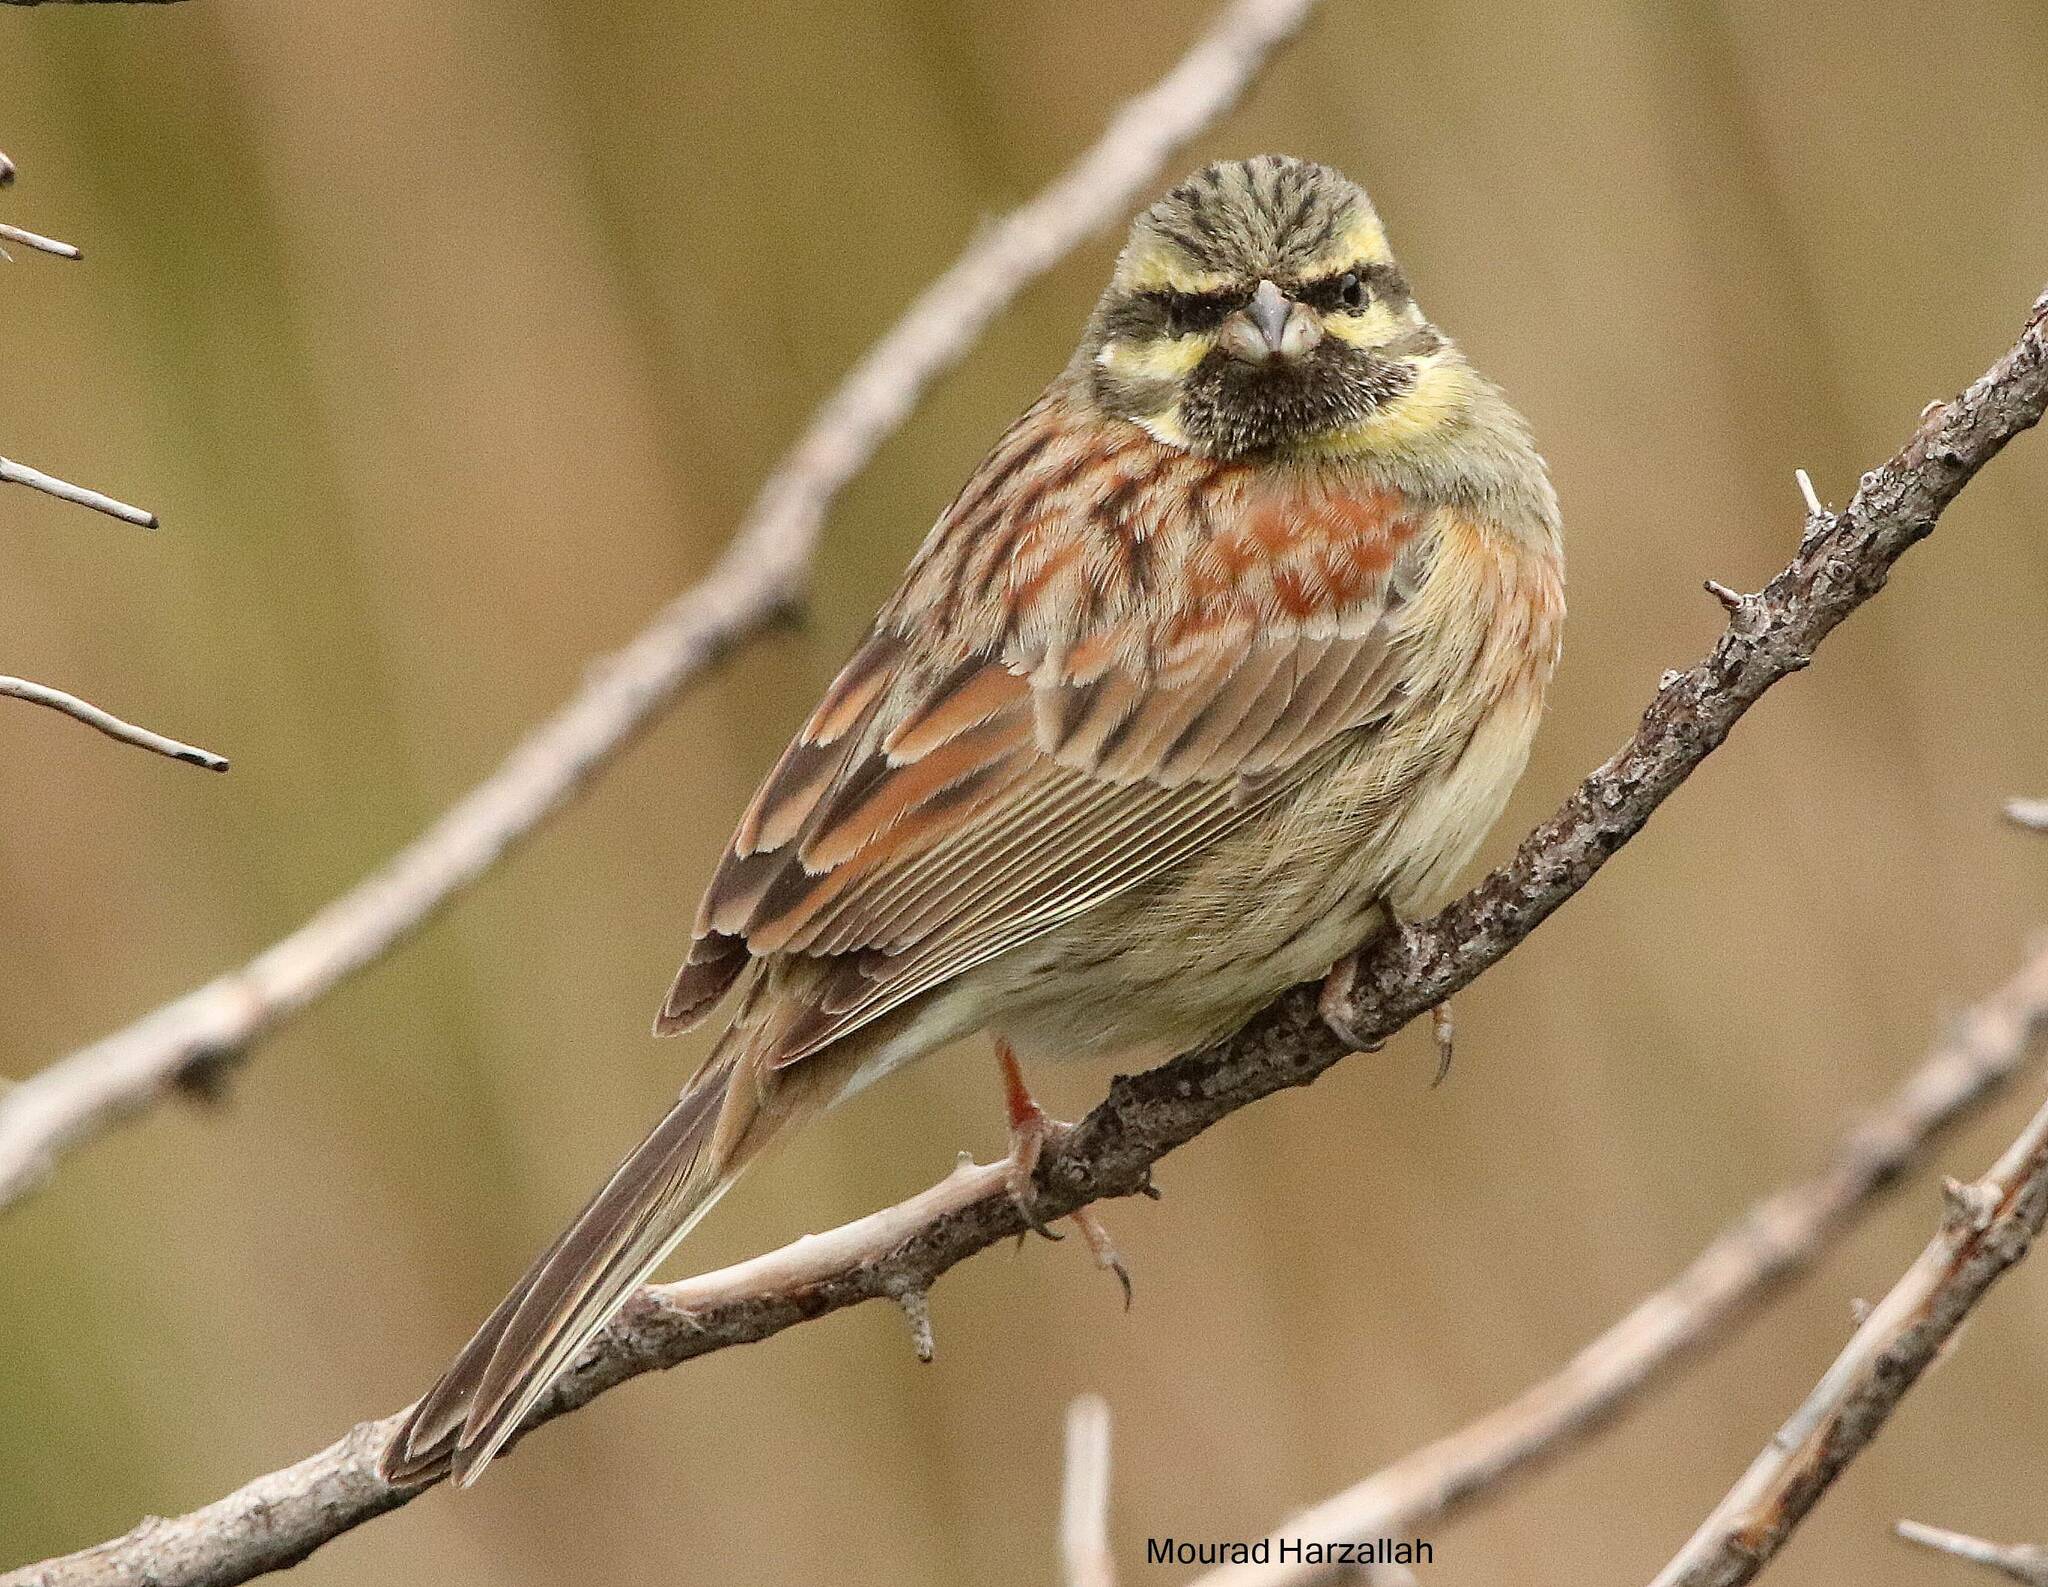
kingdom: Animalia
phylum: Chordata
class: Aves
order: Passeriformes
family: Emberizidae
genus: Emberiza
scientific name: Emberiza cirlus
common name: Cirl bunting
